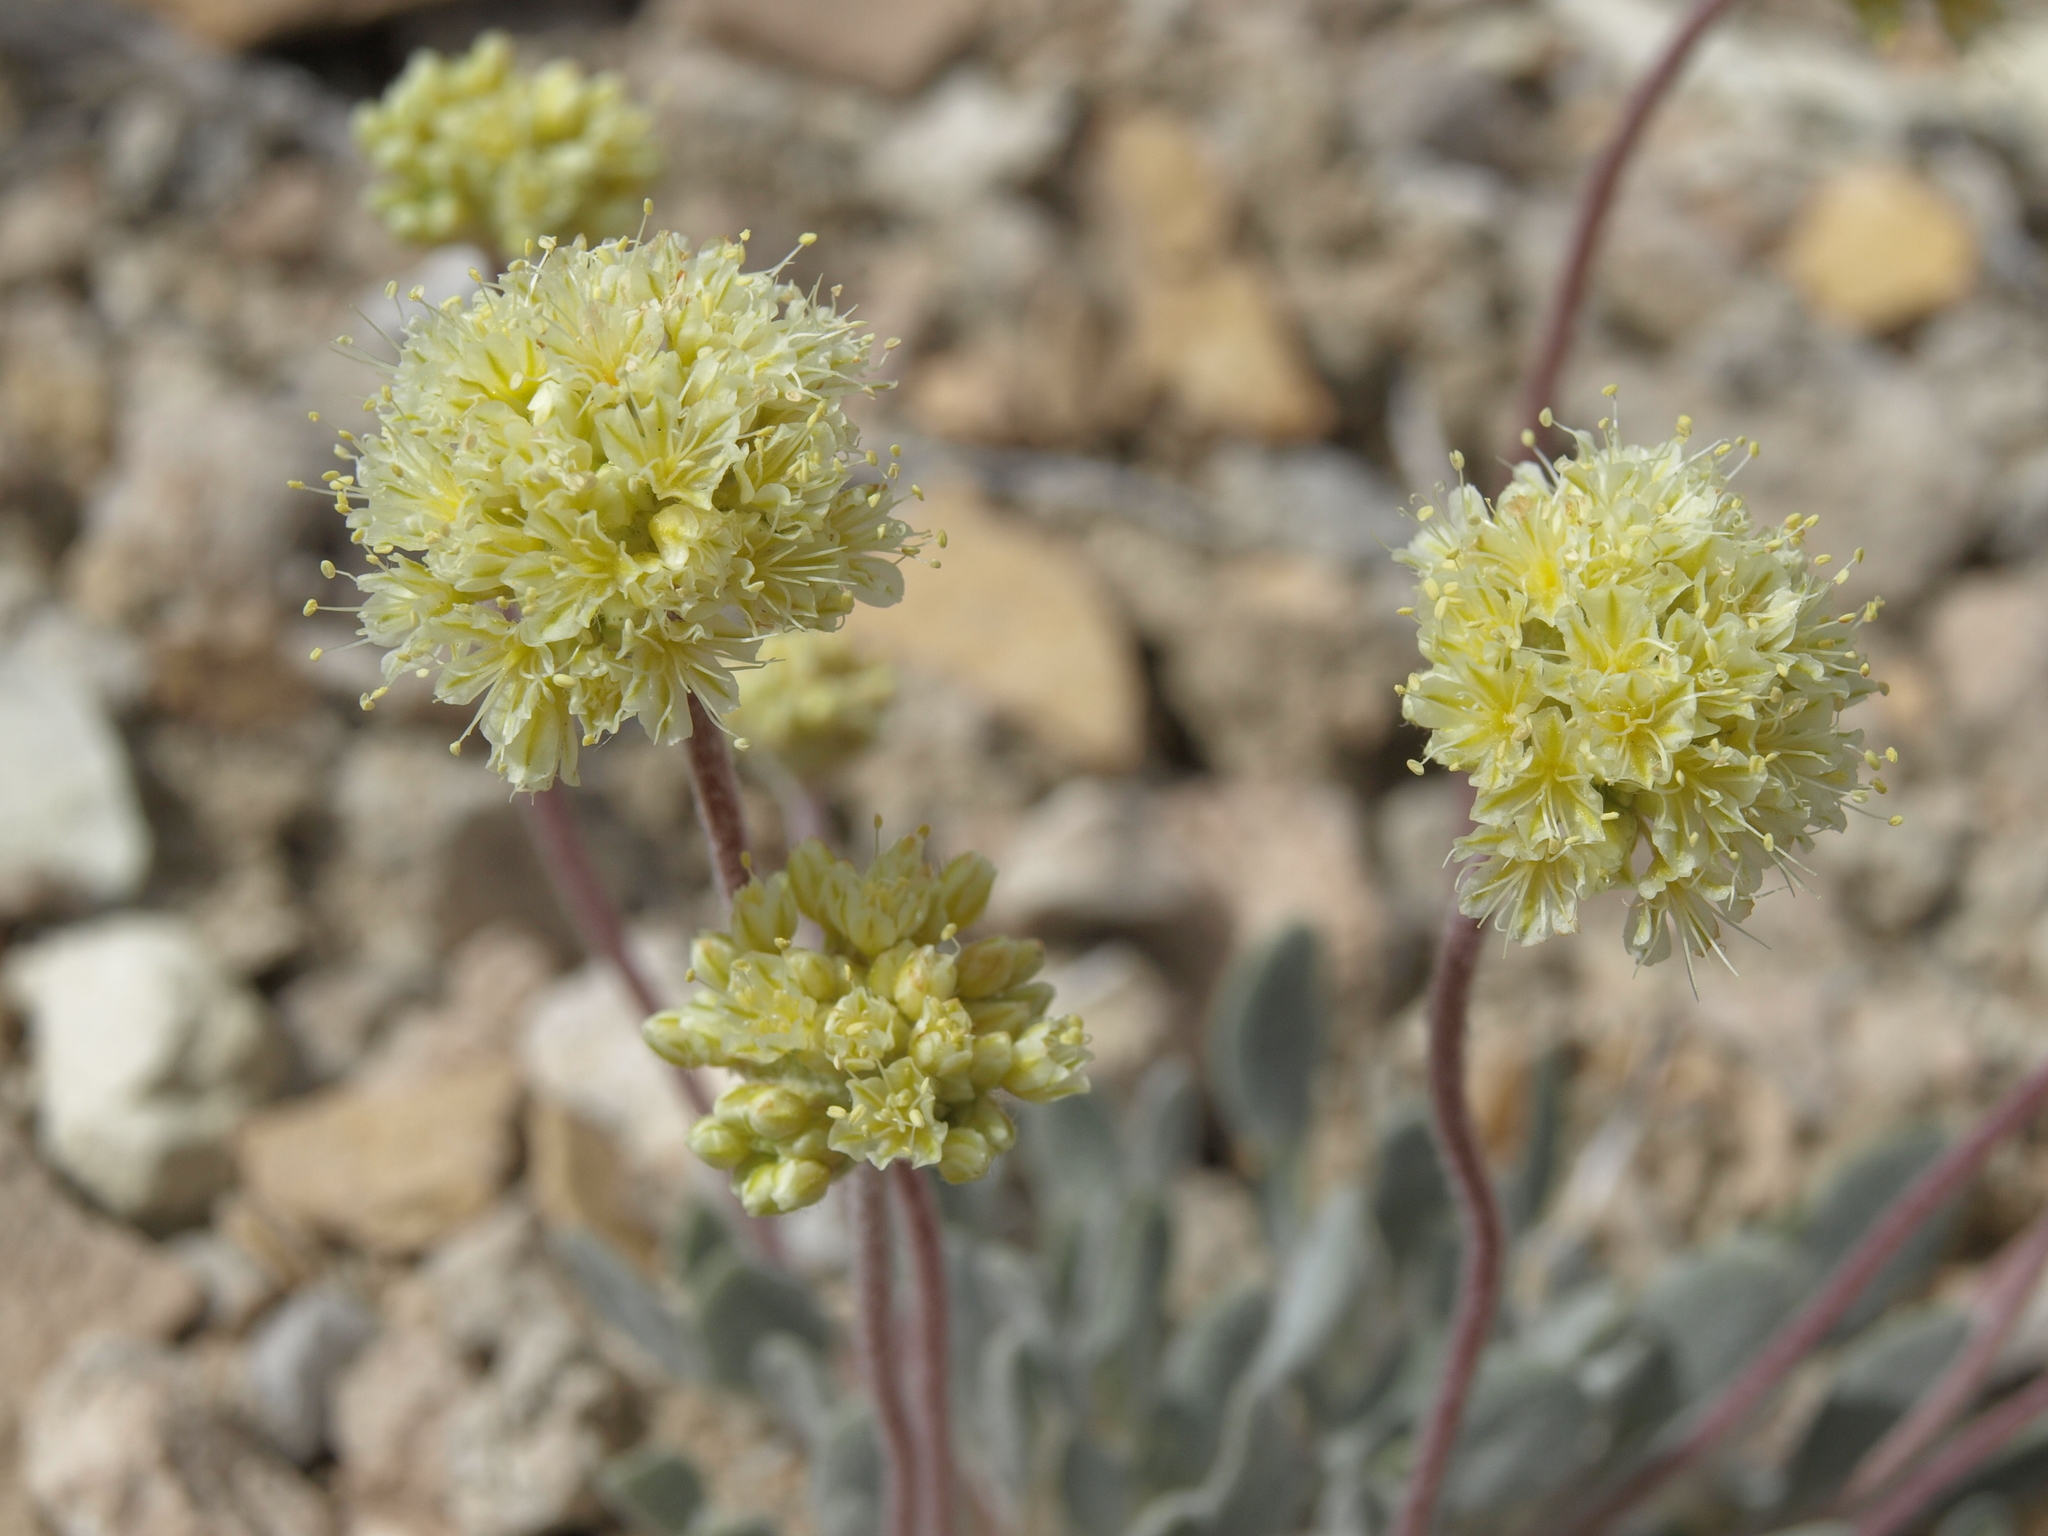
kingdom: Plantae
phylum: Tracheophyta
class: Magnoliopsida
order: Caryophyllales
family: Polygonaceae
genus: Eriogonum
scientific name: Eriogonum tiehmii
